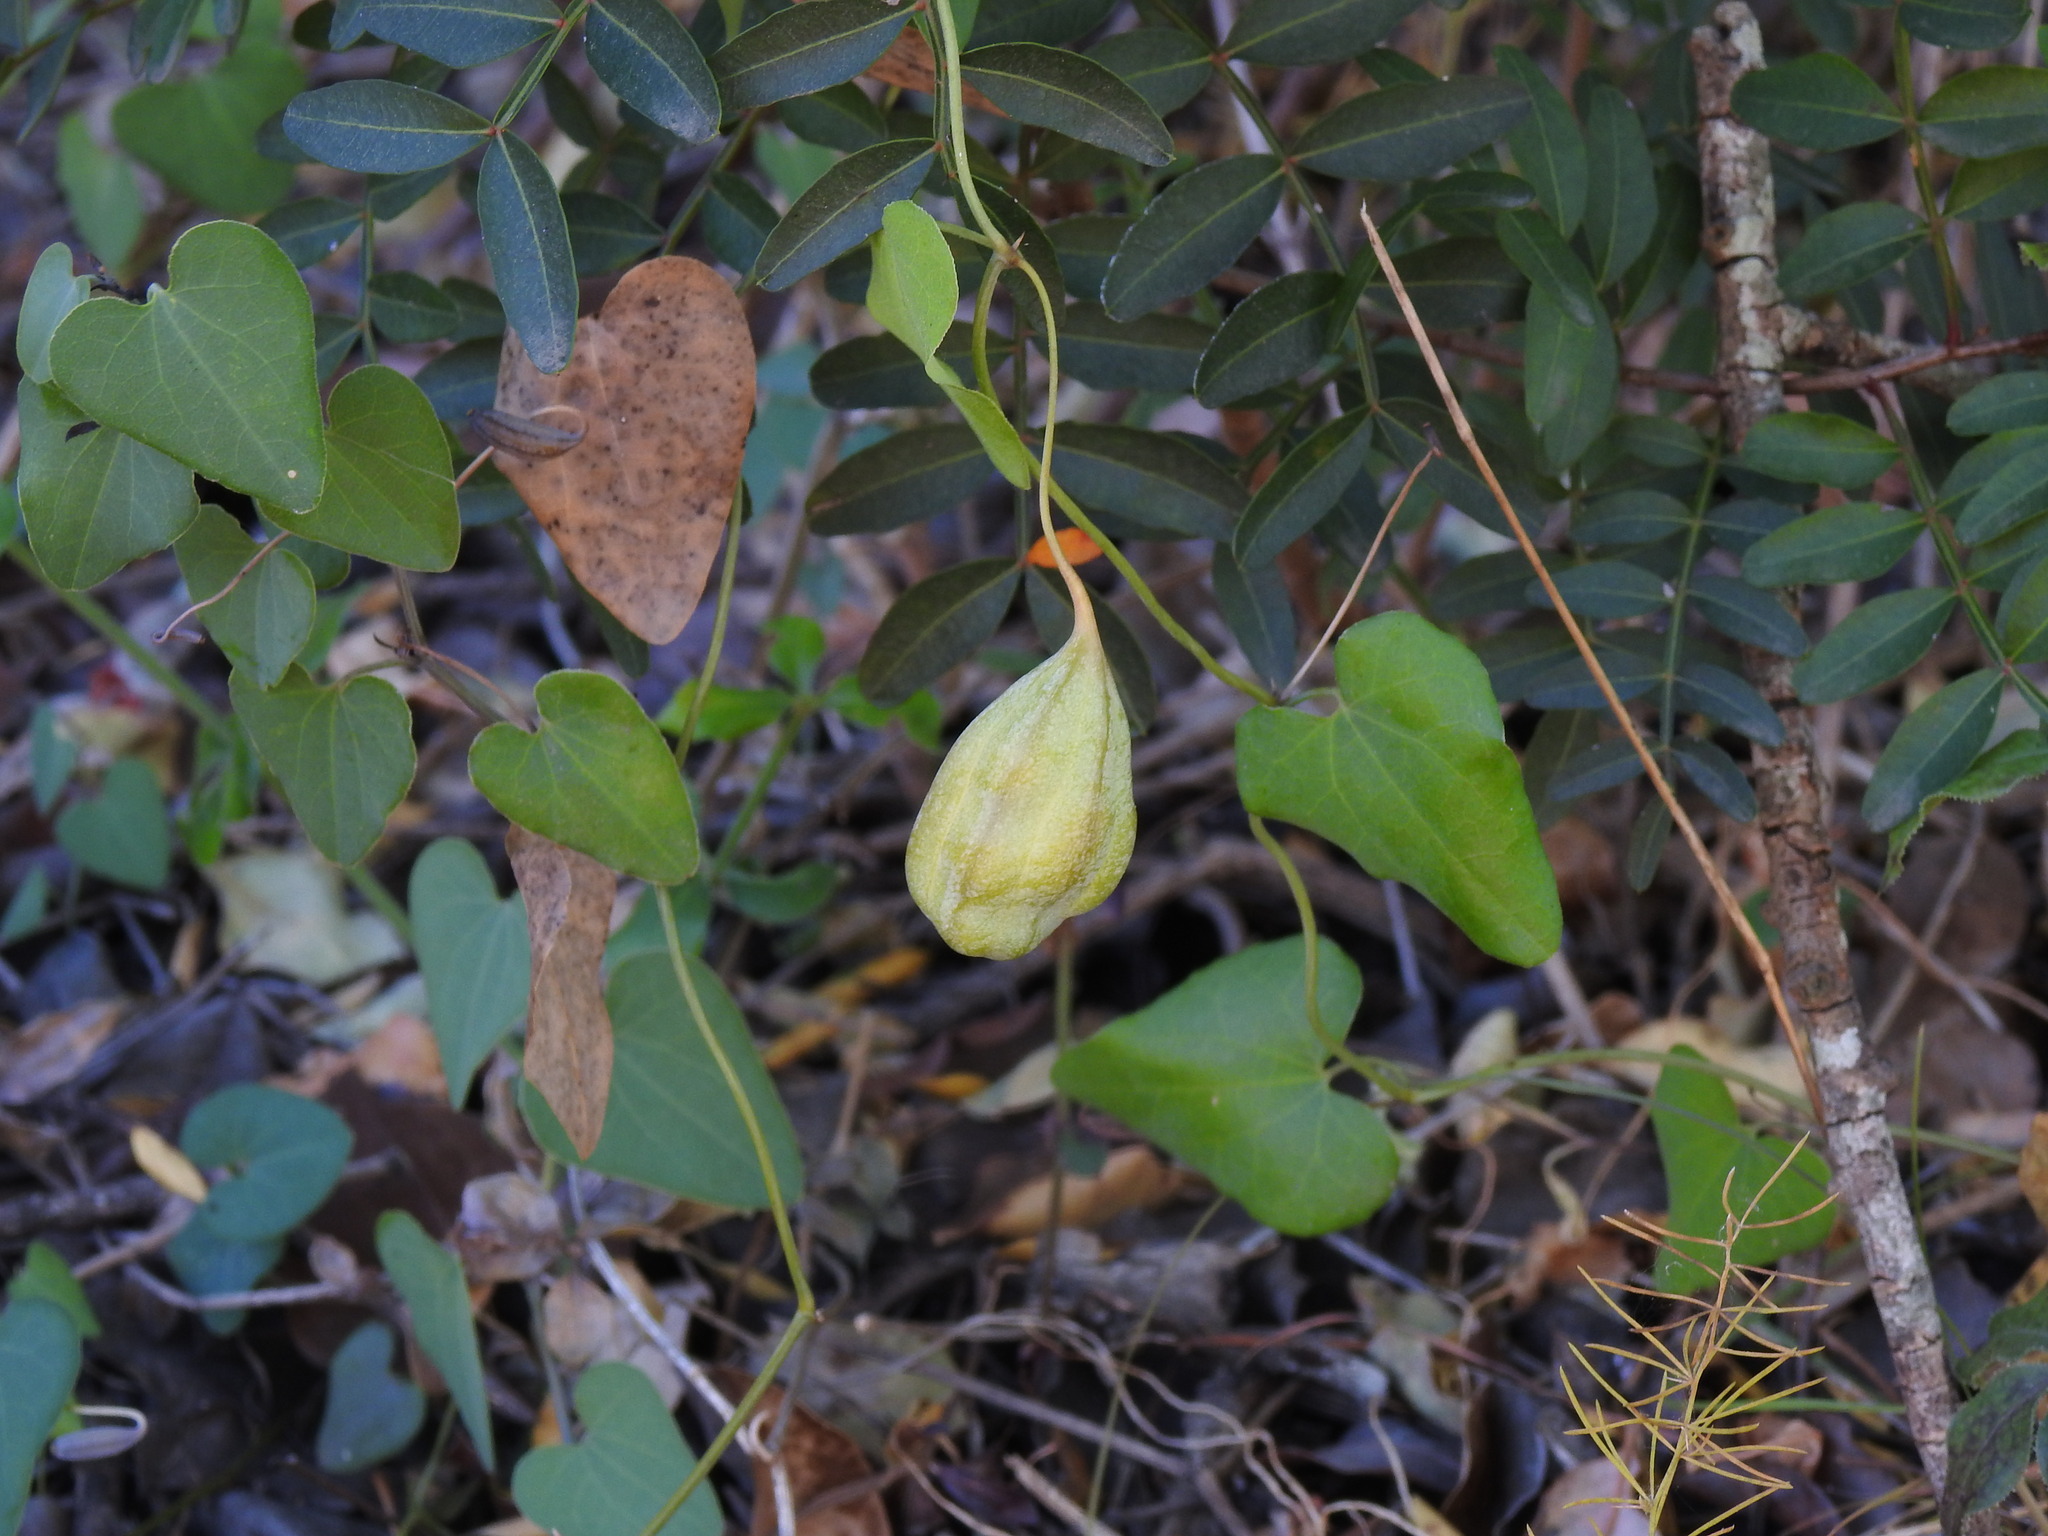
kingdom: Plantae
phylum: Tracheophyta
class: Magnoliopsida
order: Piperales
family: Aristolochiaceae
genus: Aristolochia
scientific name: Aristolochia baetica
